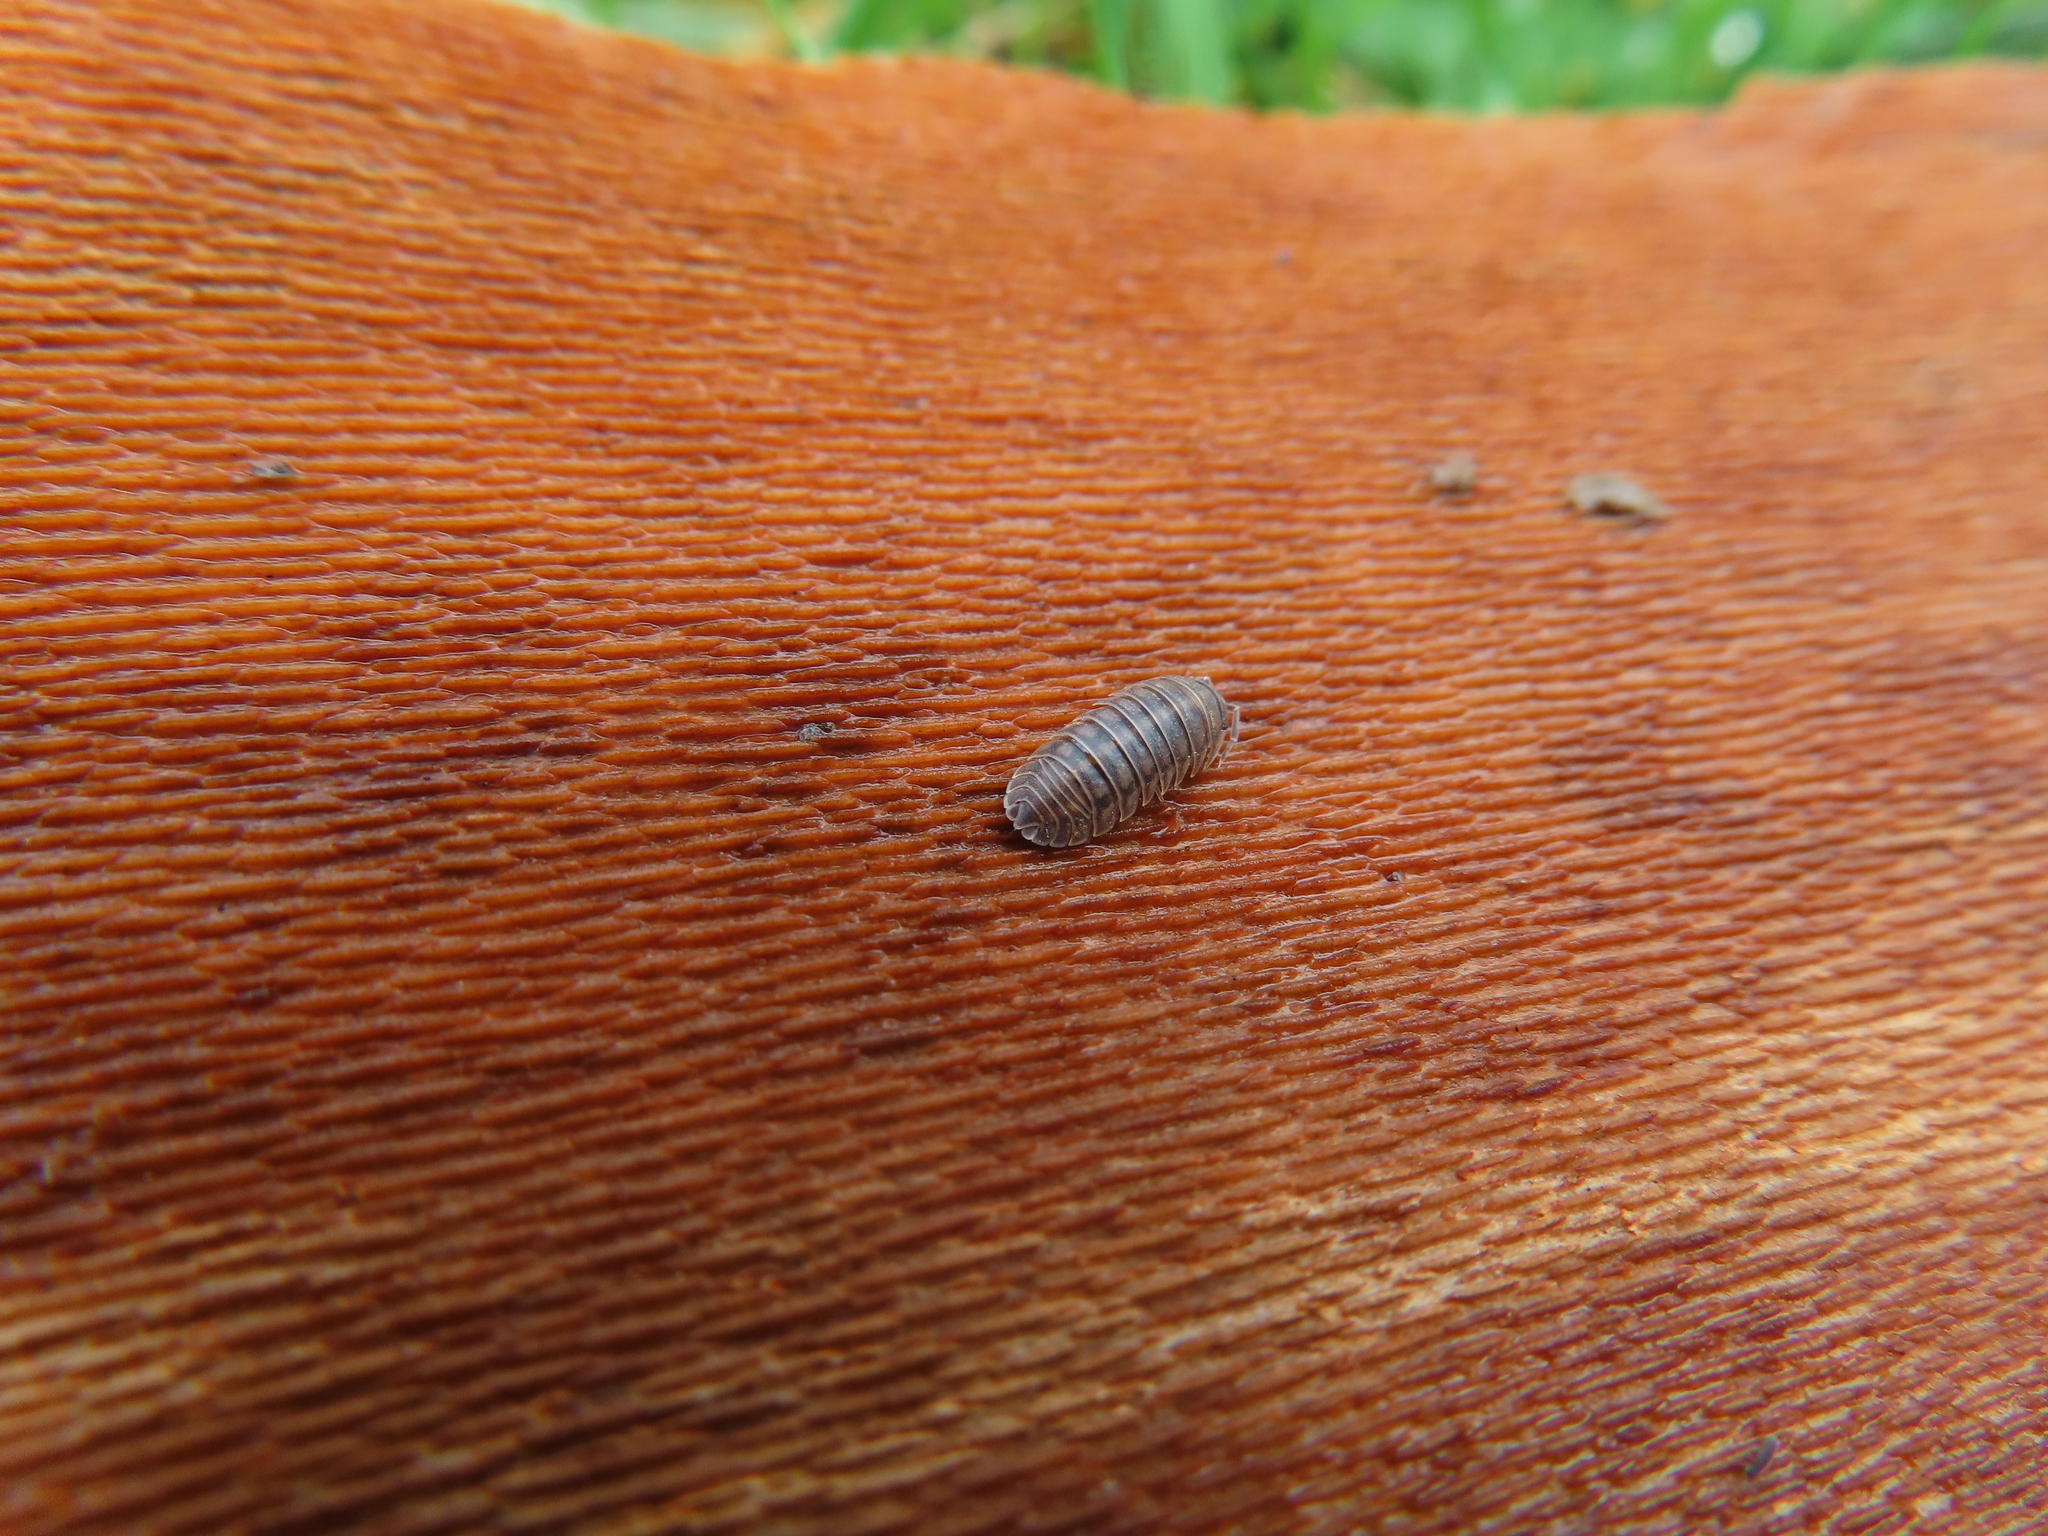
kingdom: Animalia
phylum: Arthropoda
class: Malacostraca
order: Isopoda
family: Armadillidiidae
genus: Armadillidium
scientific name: Armadillidium nasatum
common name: Isopod
